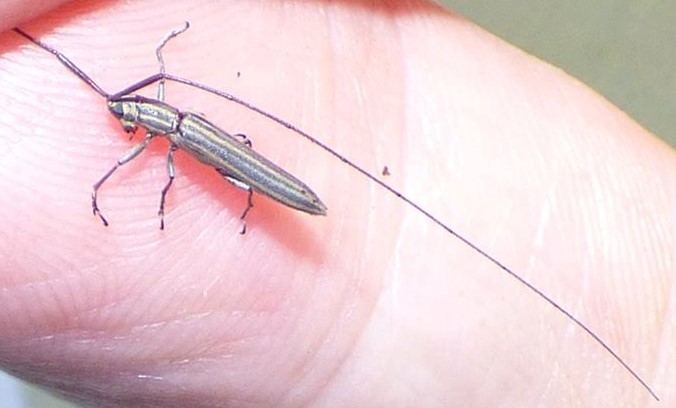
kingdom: Animalia
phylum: Arthropoda
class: Insecta
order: Coleoptera
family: Cerambycidae
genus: Hippopsis
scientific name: Hippopsis
